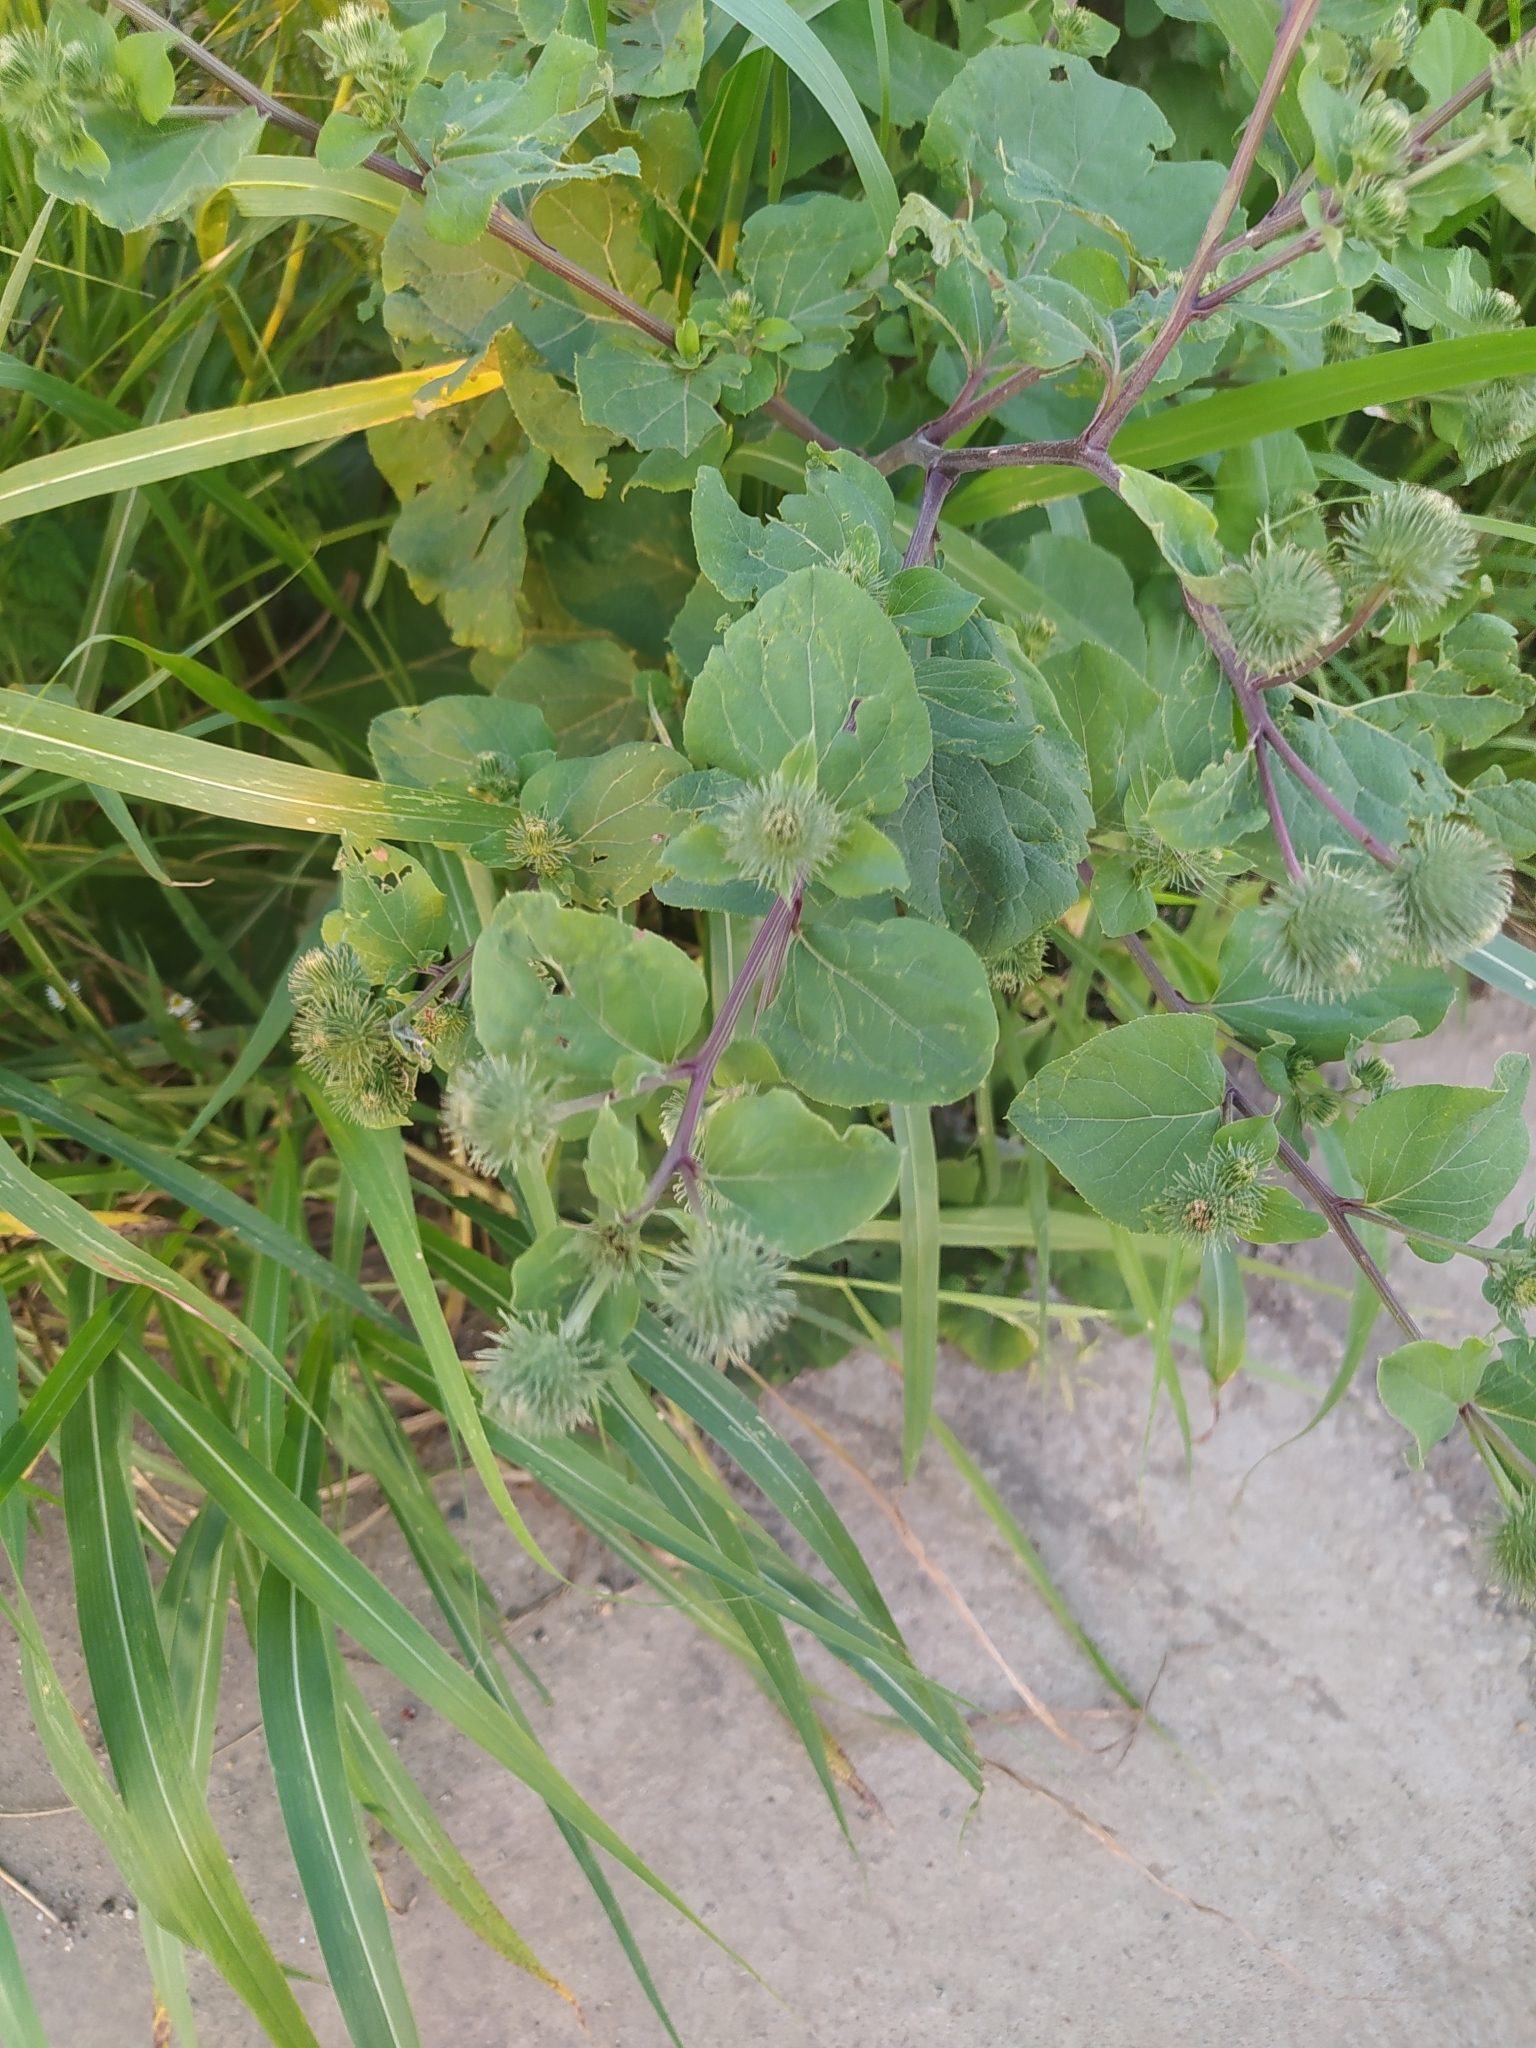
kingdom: Plantae
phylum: Tracheophyta
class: Magnoliopsida
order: Asterales
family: Asteraceae
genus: Arctium
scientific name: Arctium lappa
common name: Greater burdock
